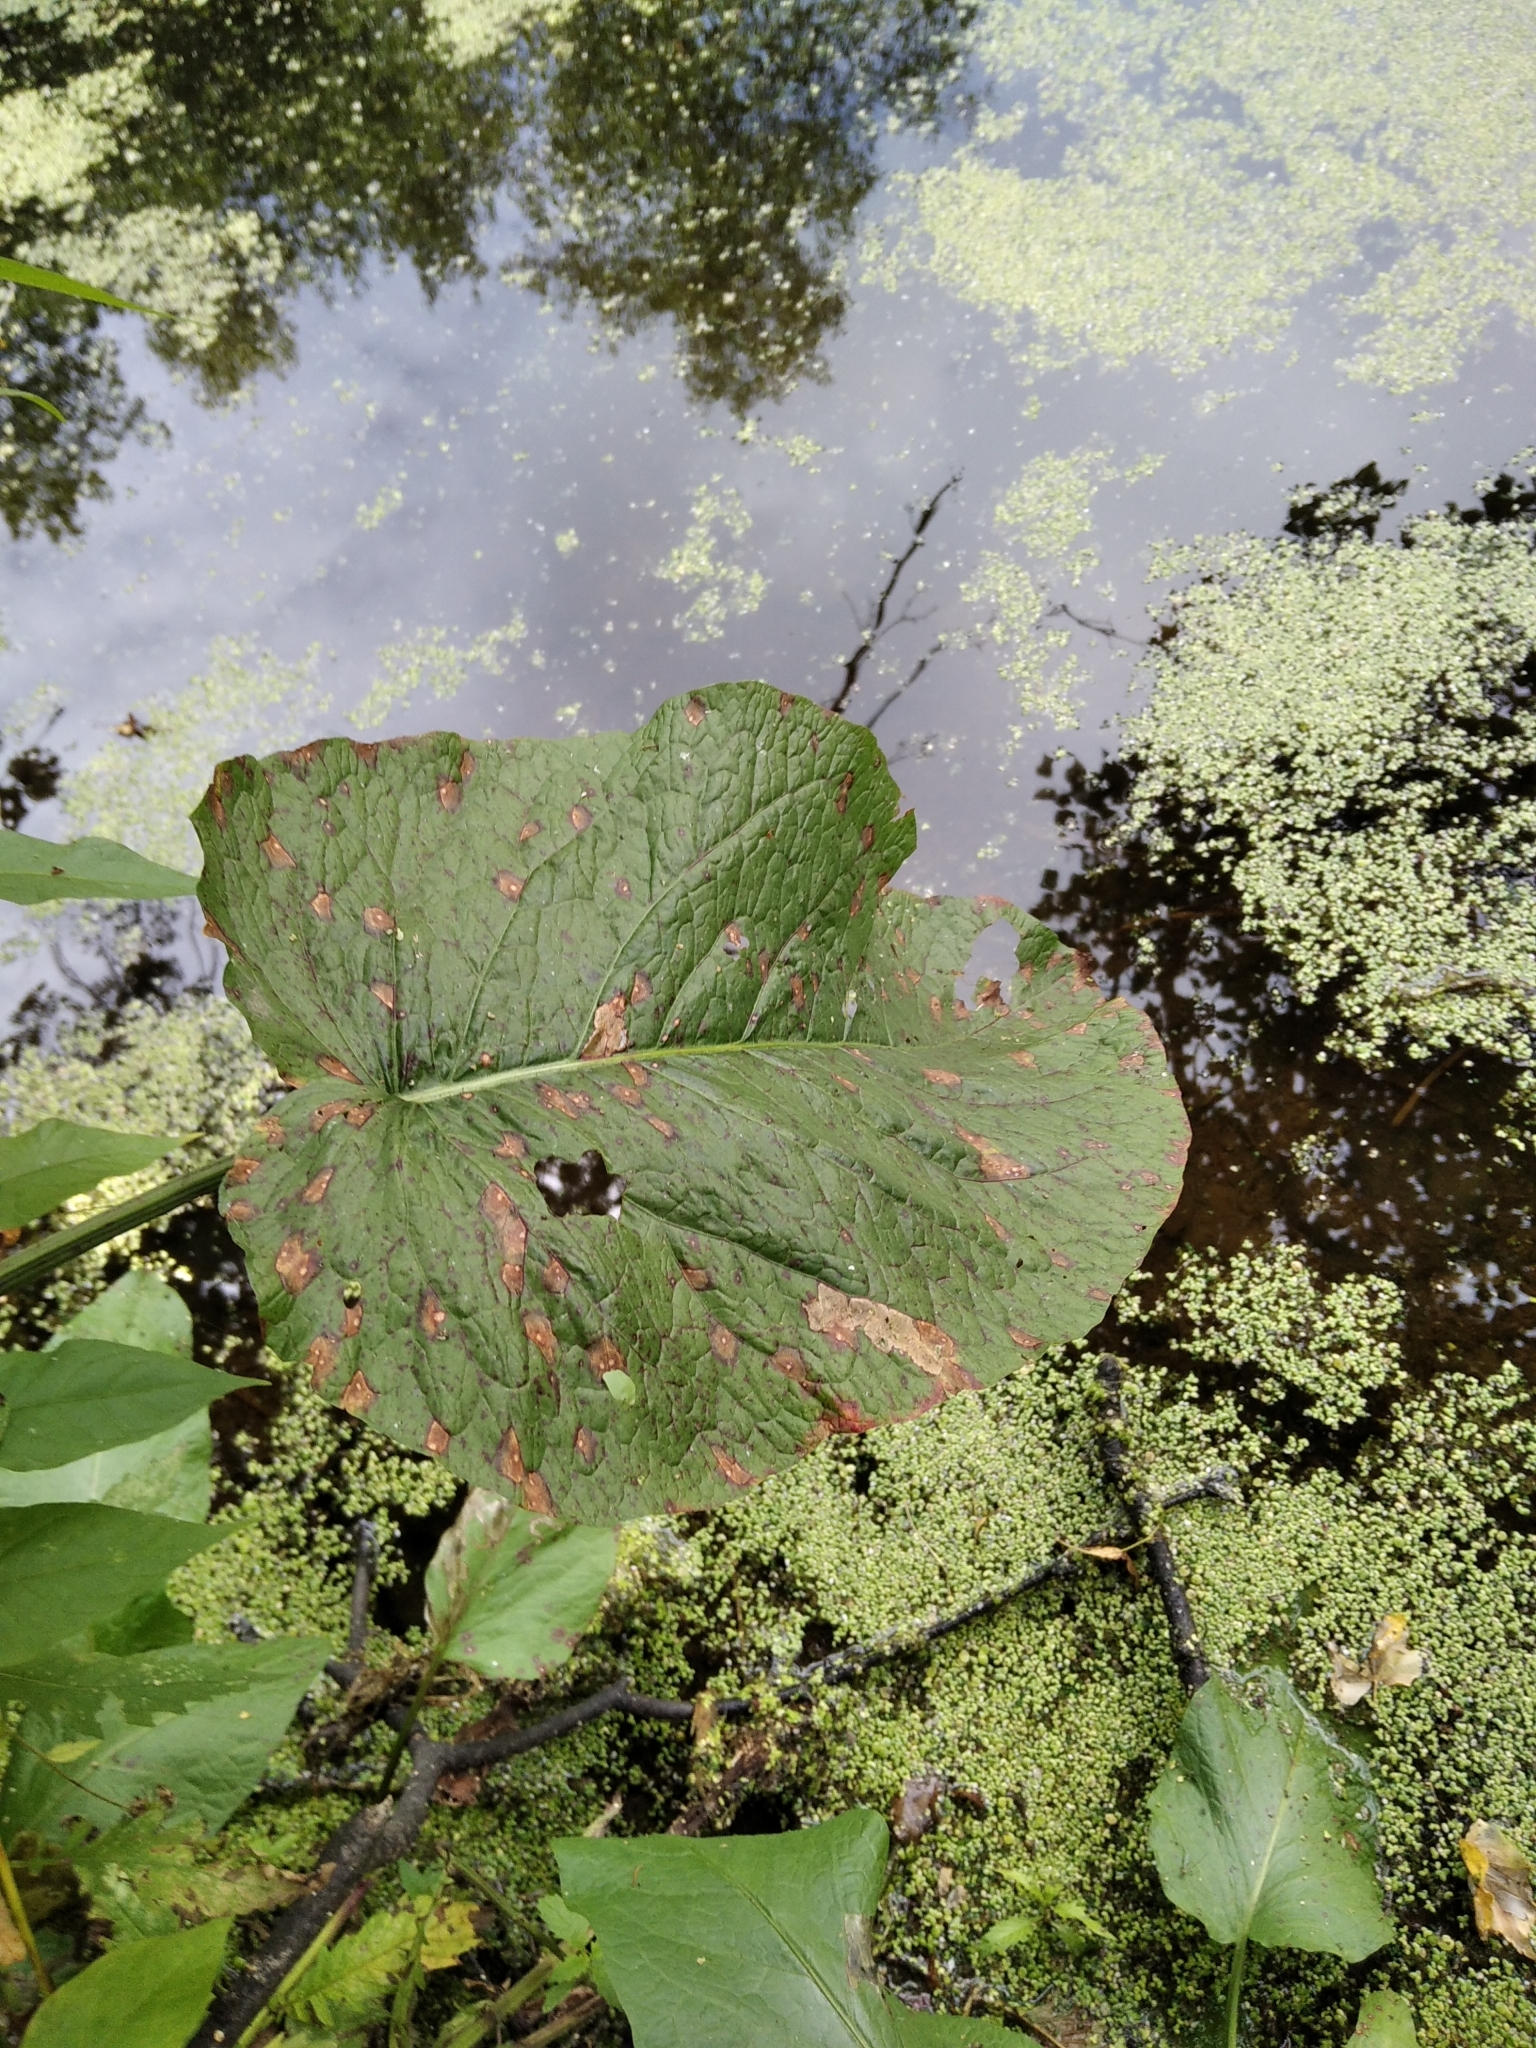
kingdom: Plantae
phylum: Tracheophyta
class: Magnoliopsida
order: Caryophyllales
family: Polygonaceae
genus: Rumex
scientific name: Rumex obtusifolius
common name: Bitter dock
